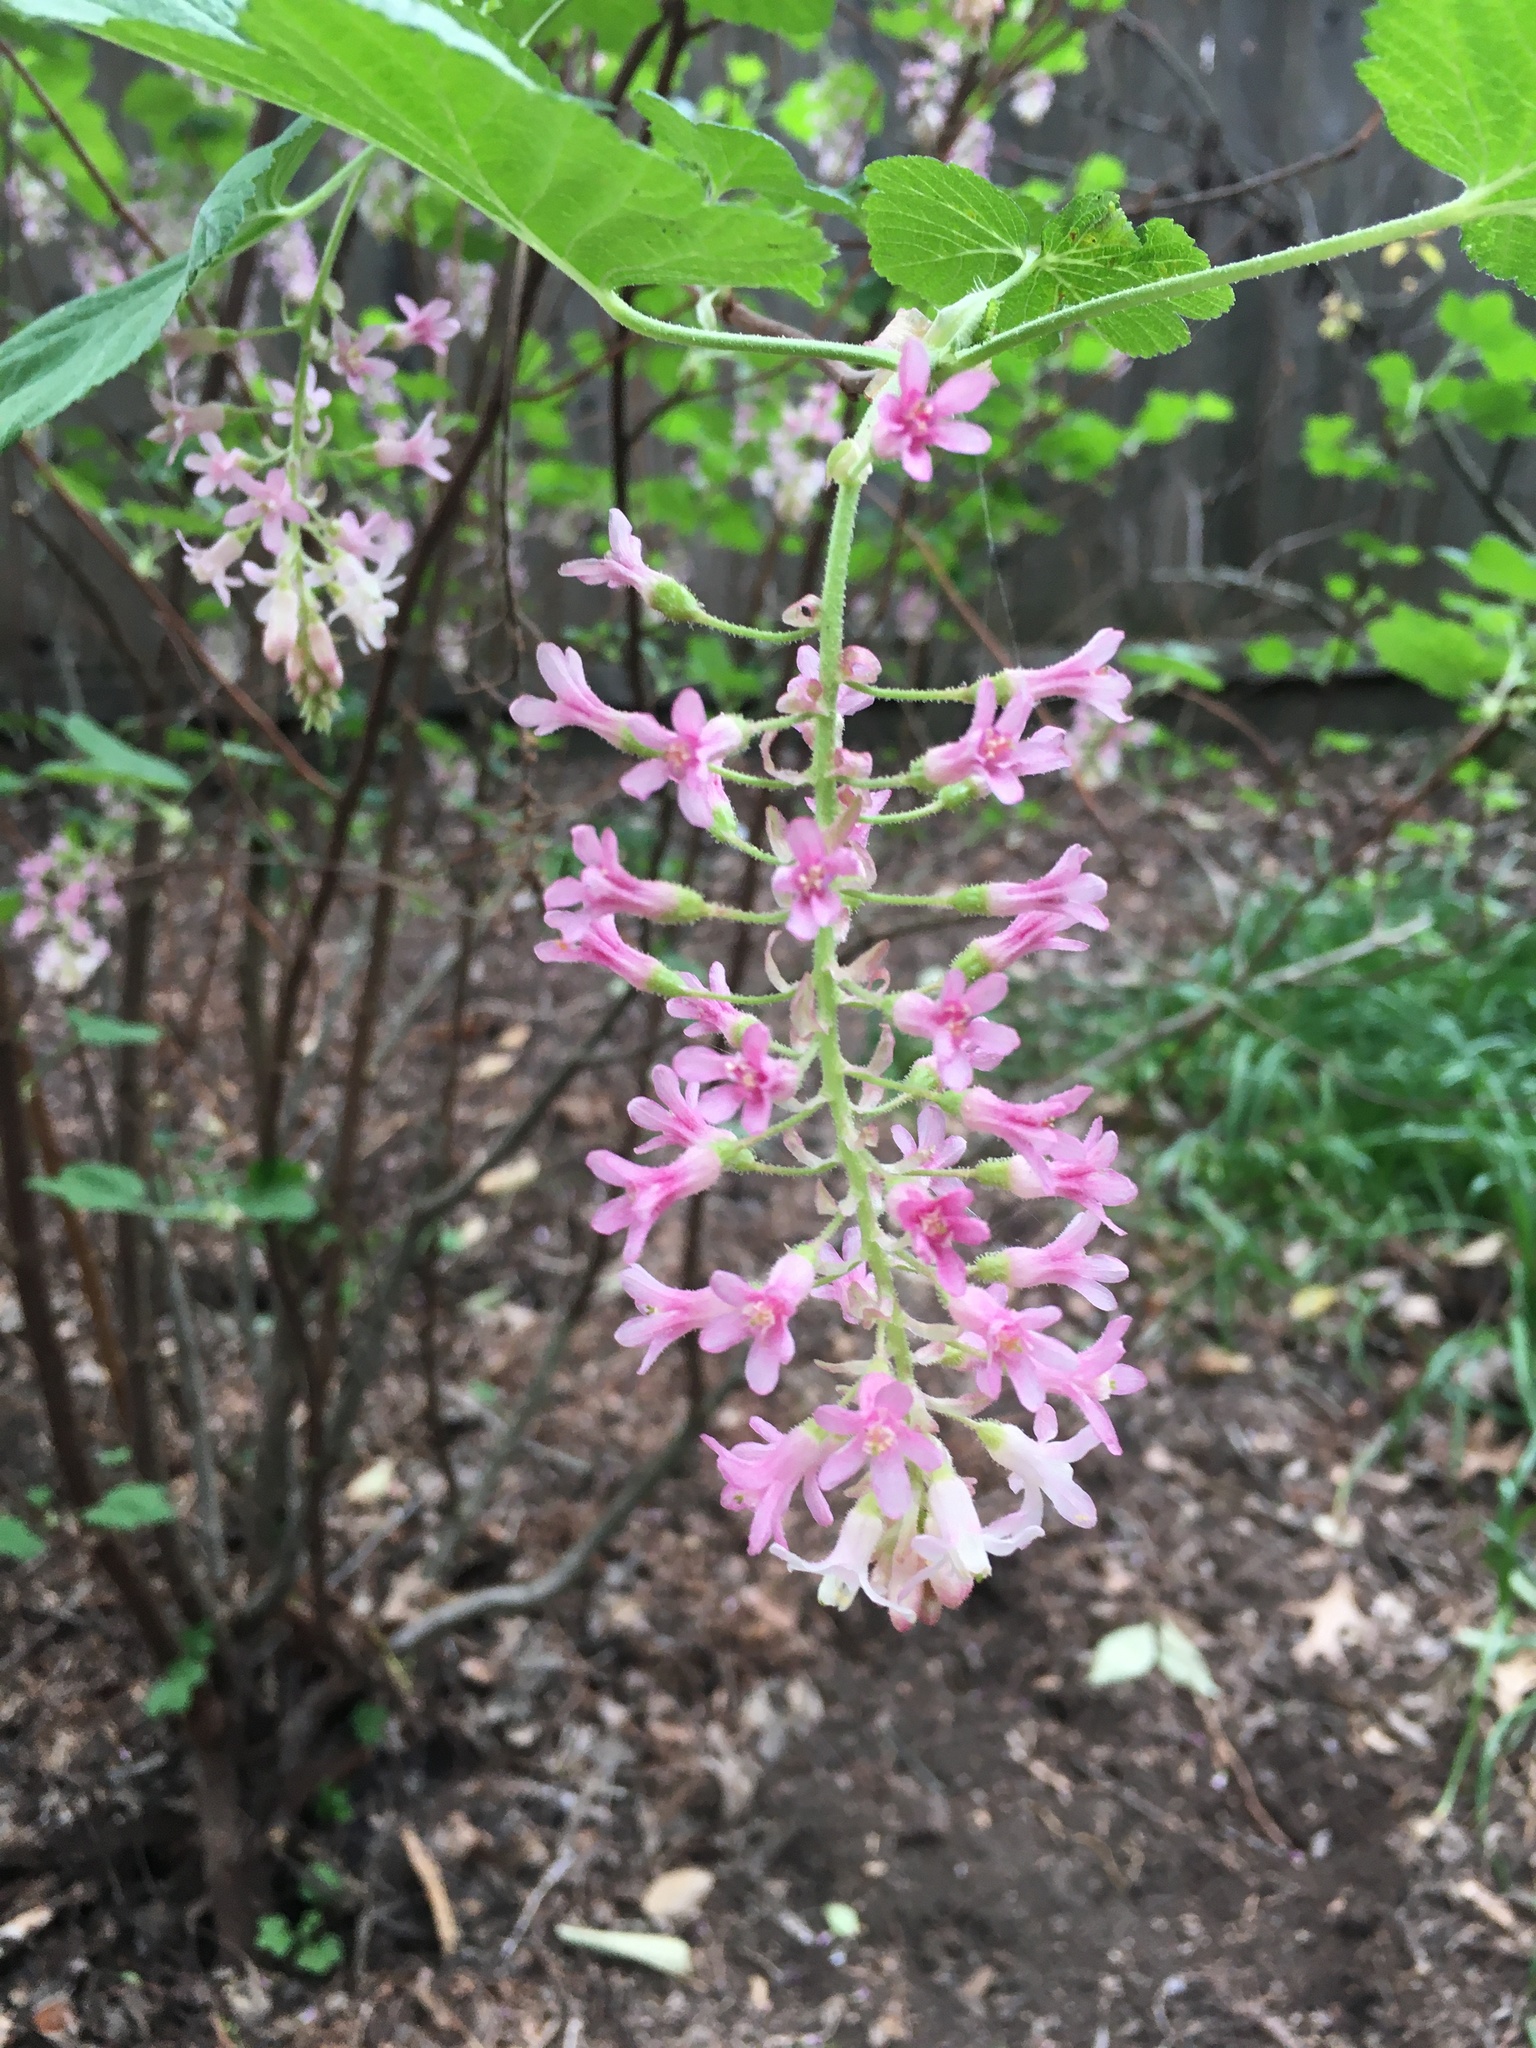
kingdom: Plantae
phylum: Tracheophyta
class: Magnoliopsida
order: Saxifragales
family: Grossulariaceae
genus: Ribes
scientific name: Ribes sanguineum
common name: Flowering currant
